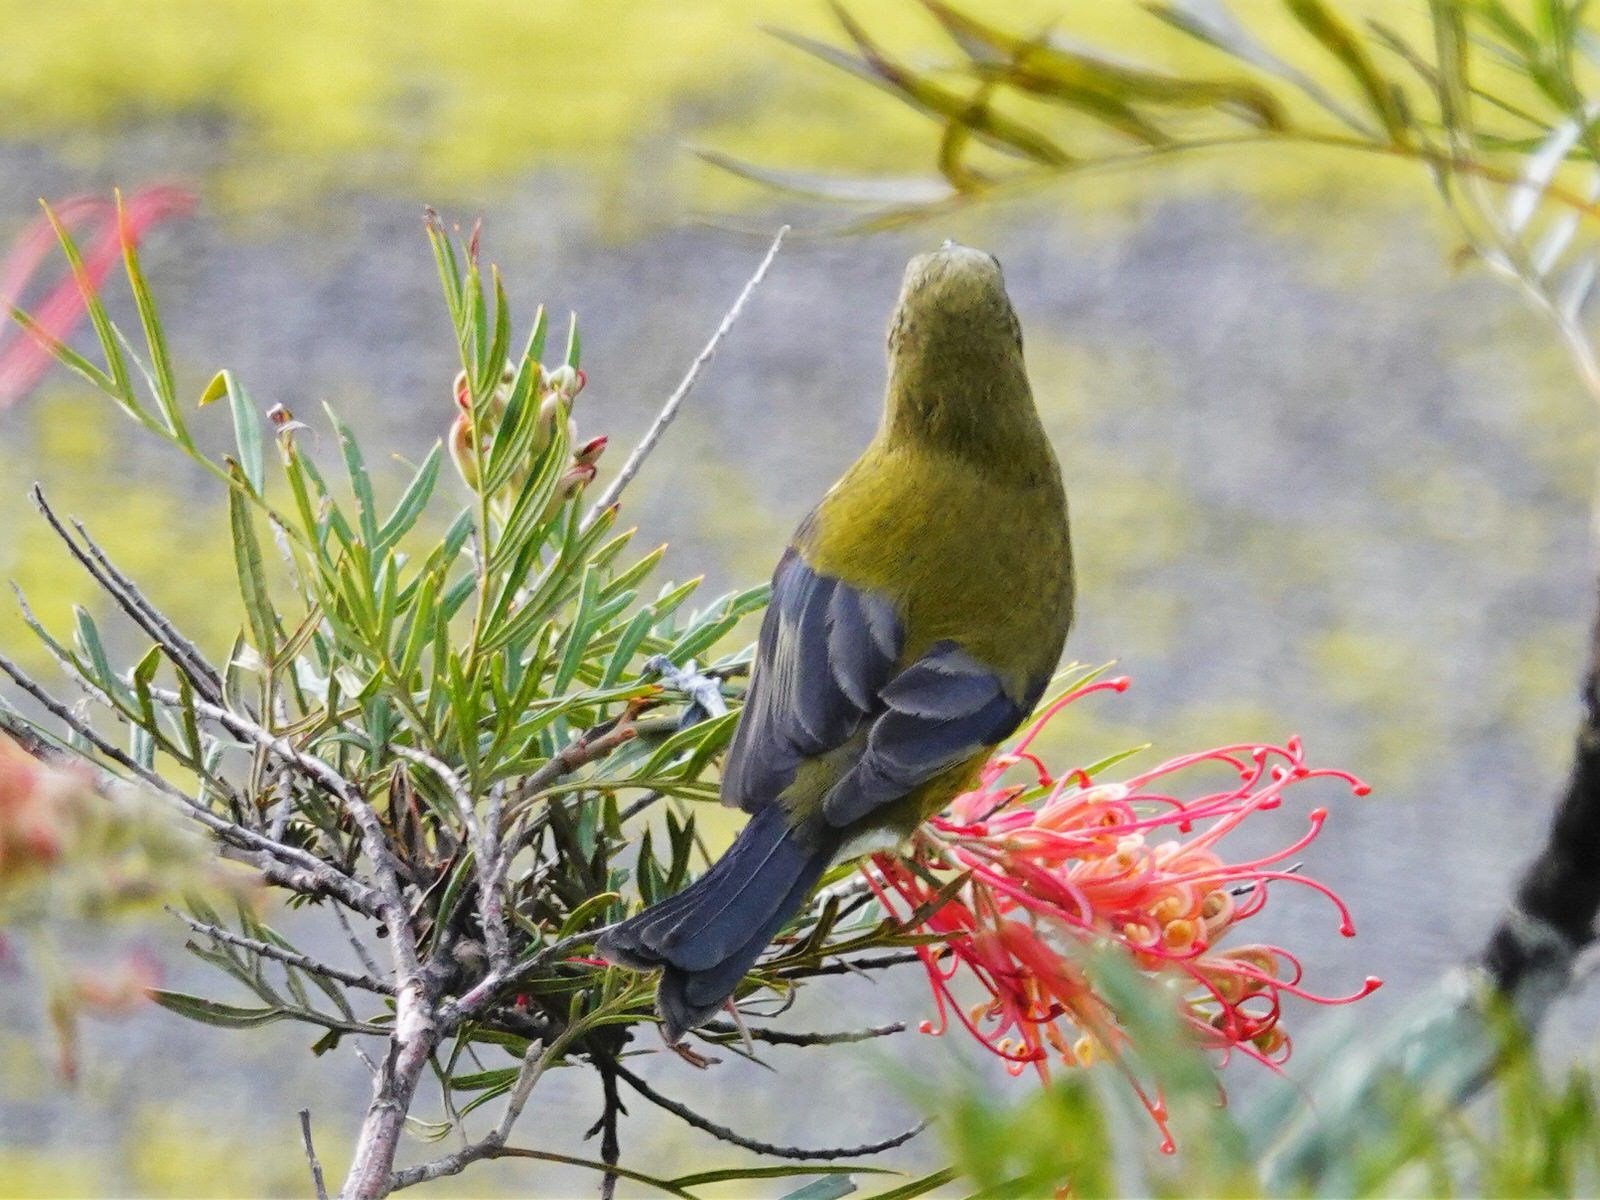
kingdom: Animalia
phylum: Chordata
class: Aves
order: Passeriformes
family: Meliphagidae
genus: Anthornis
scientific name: Anthornis melanura
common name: New zealand bellbird
